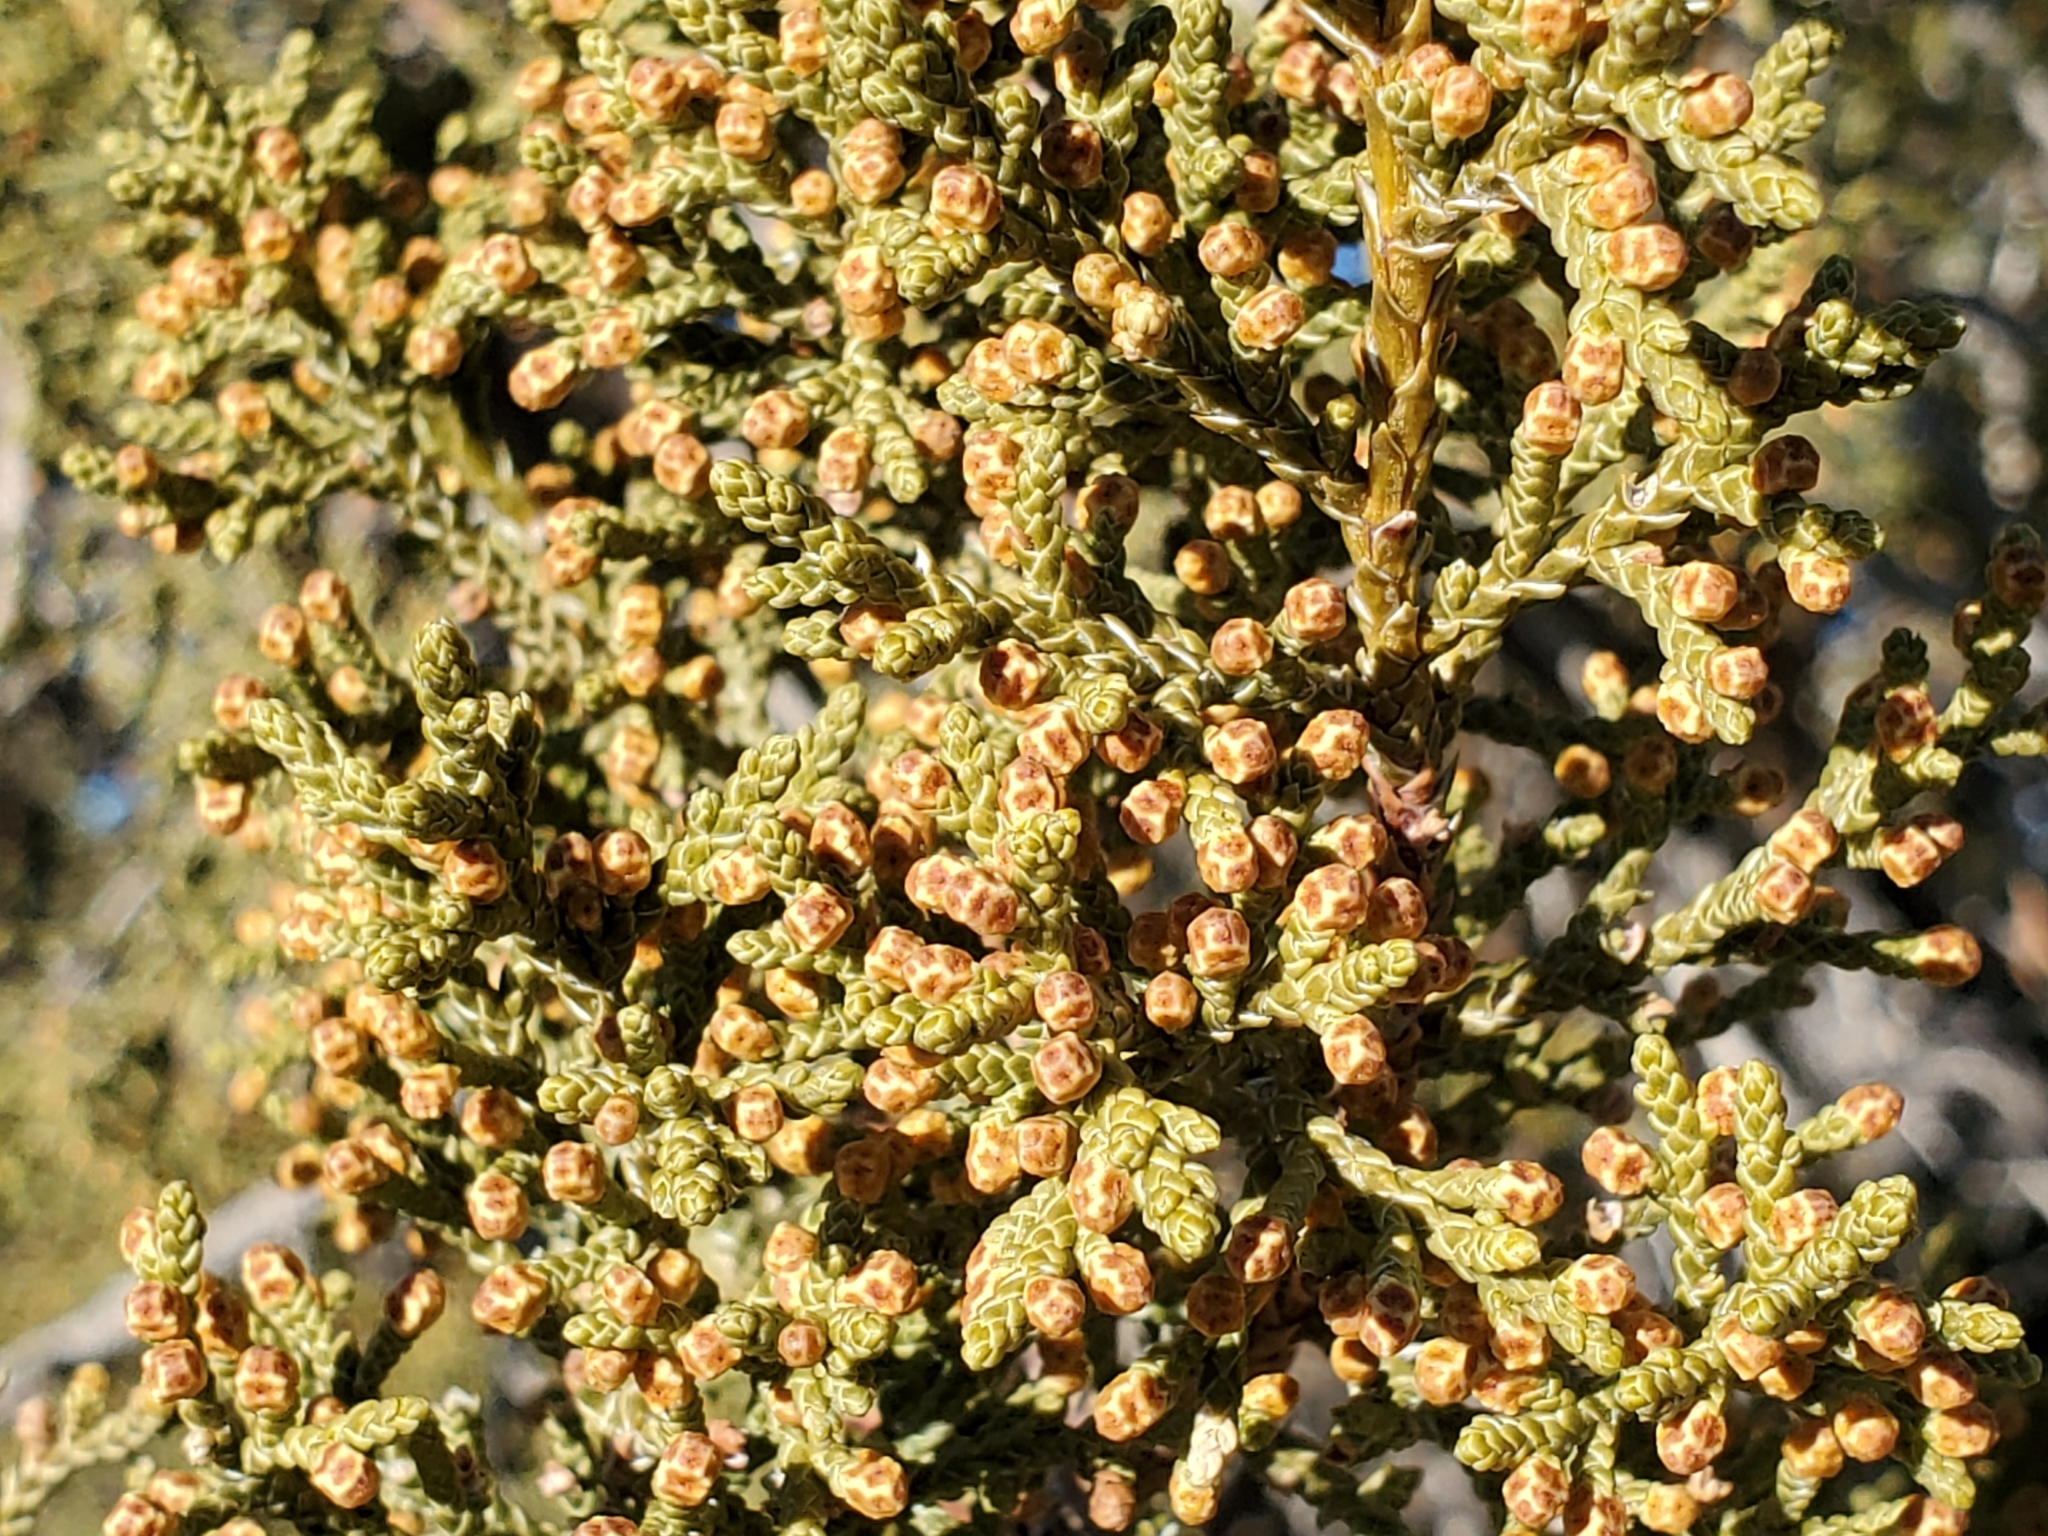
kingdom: Plantae
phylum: Tracheophyta
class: Pinopsida
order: Pinales
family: Cupressaceae
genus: Juniperus
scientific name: Juniperus monosperma
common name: One-seed juniper
